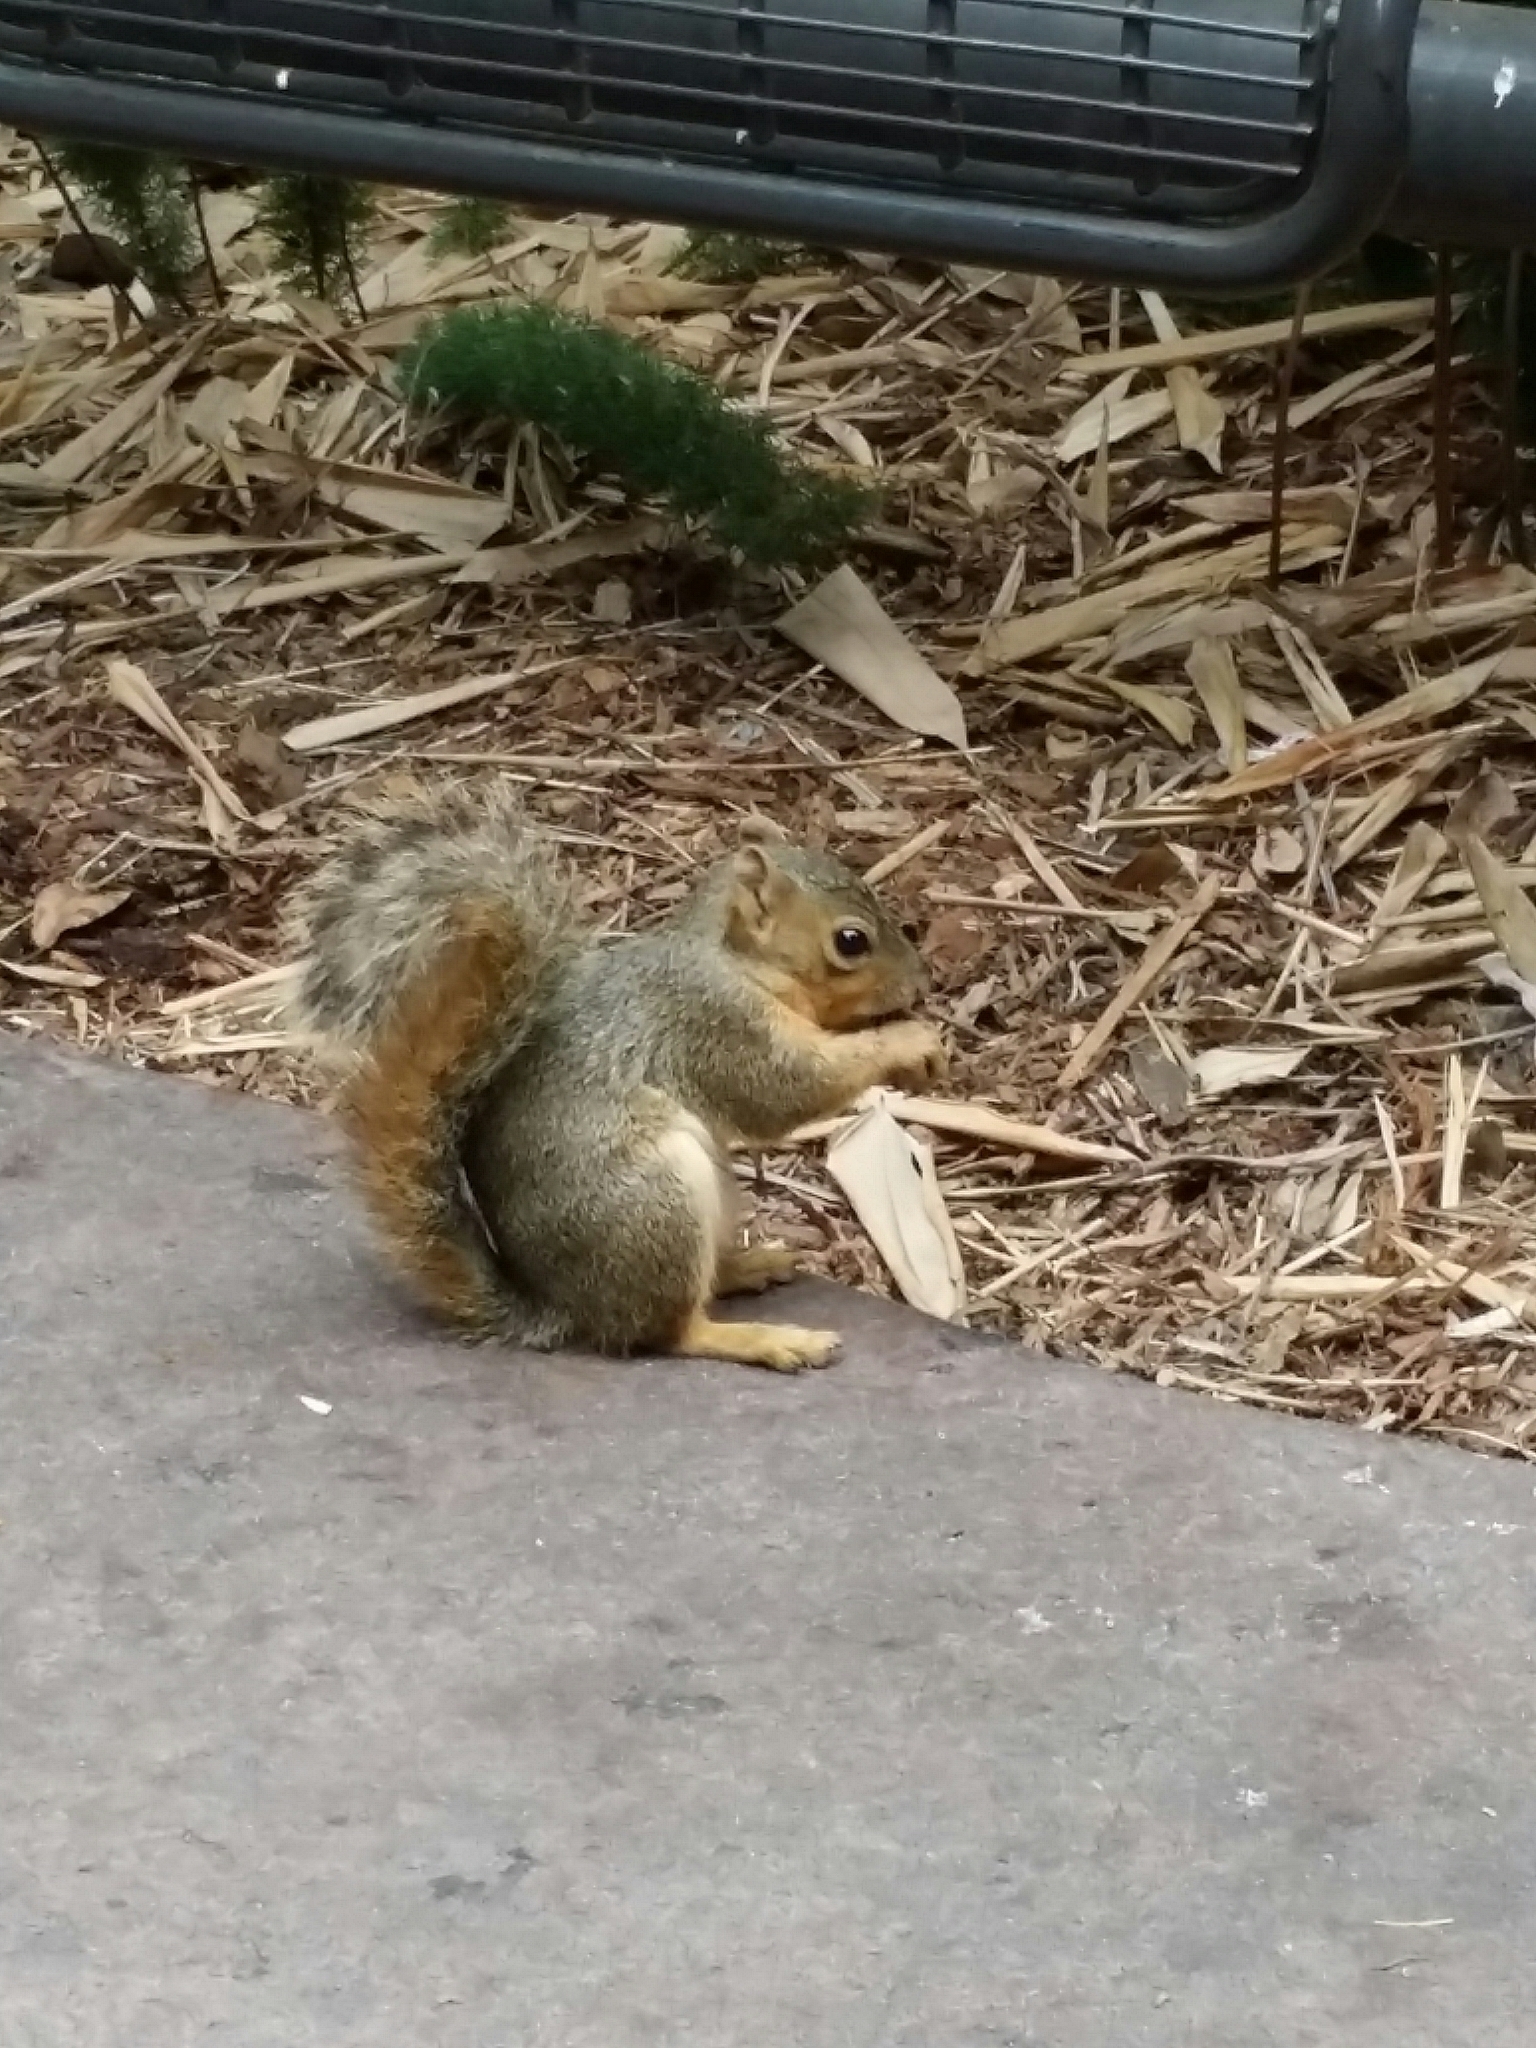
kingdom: Animalia
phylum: Chordata
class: Mammalia
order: Rodentia
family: Sciuridae
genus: Sciurus
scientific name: Sciurus niger
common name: Fox squirrel
